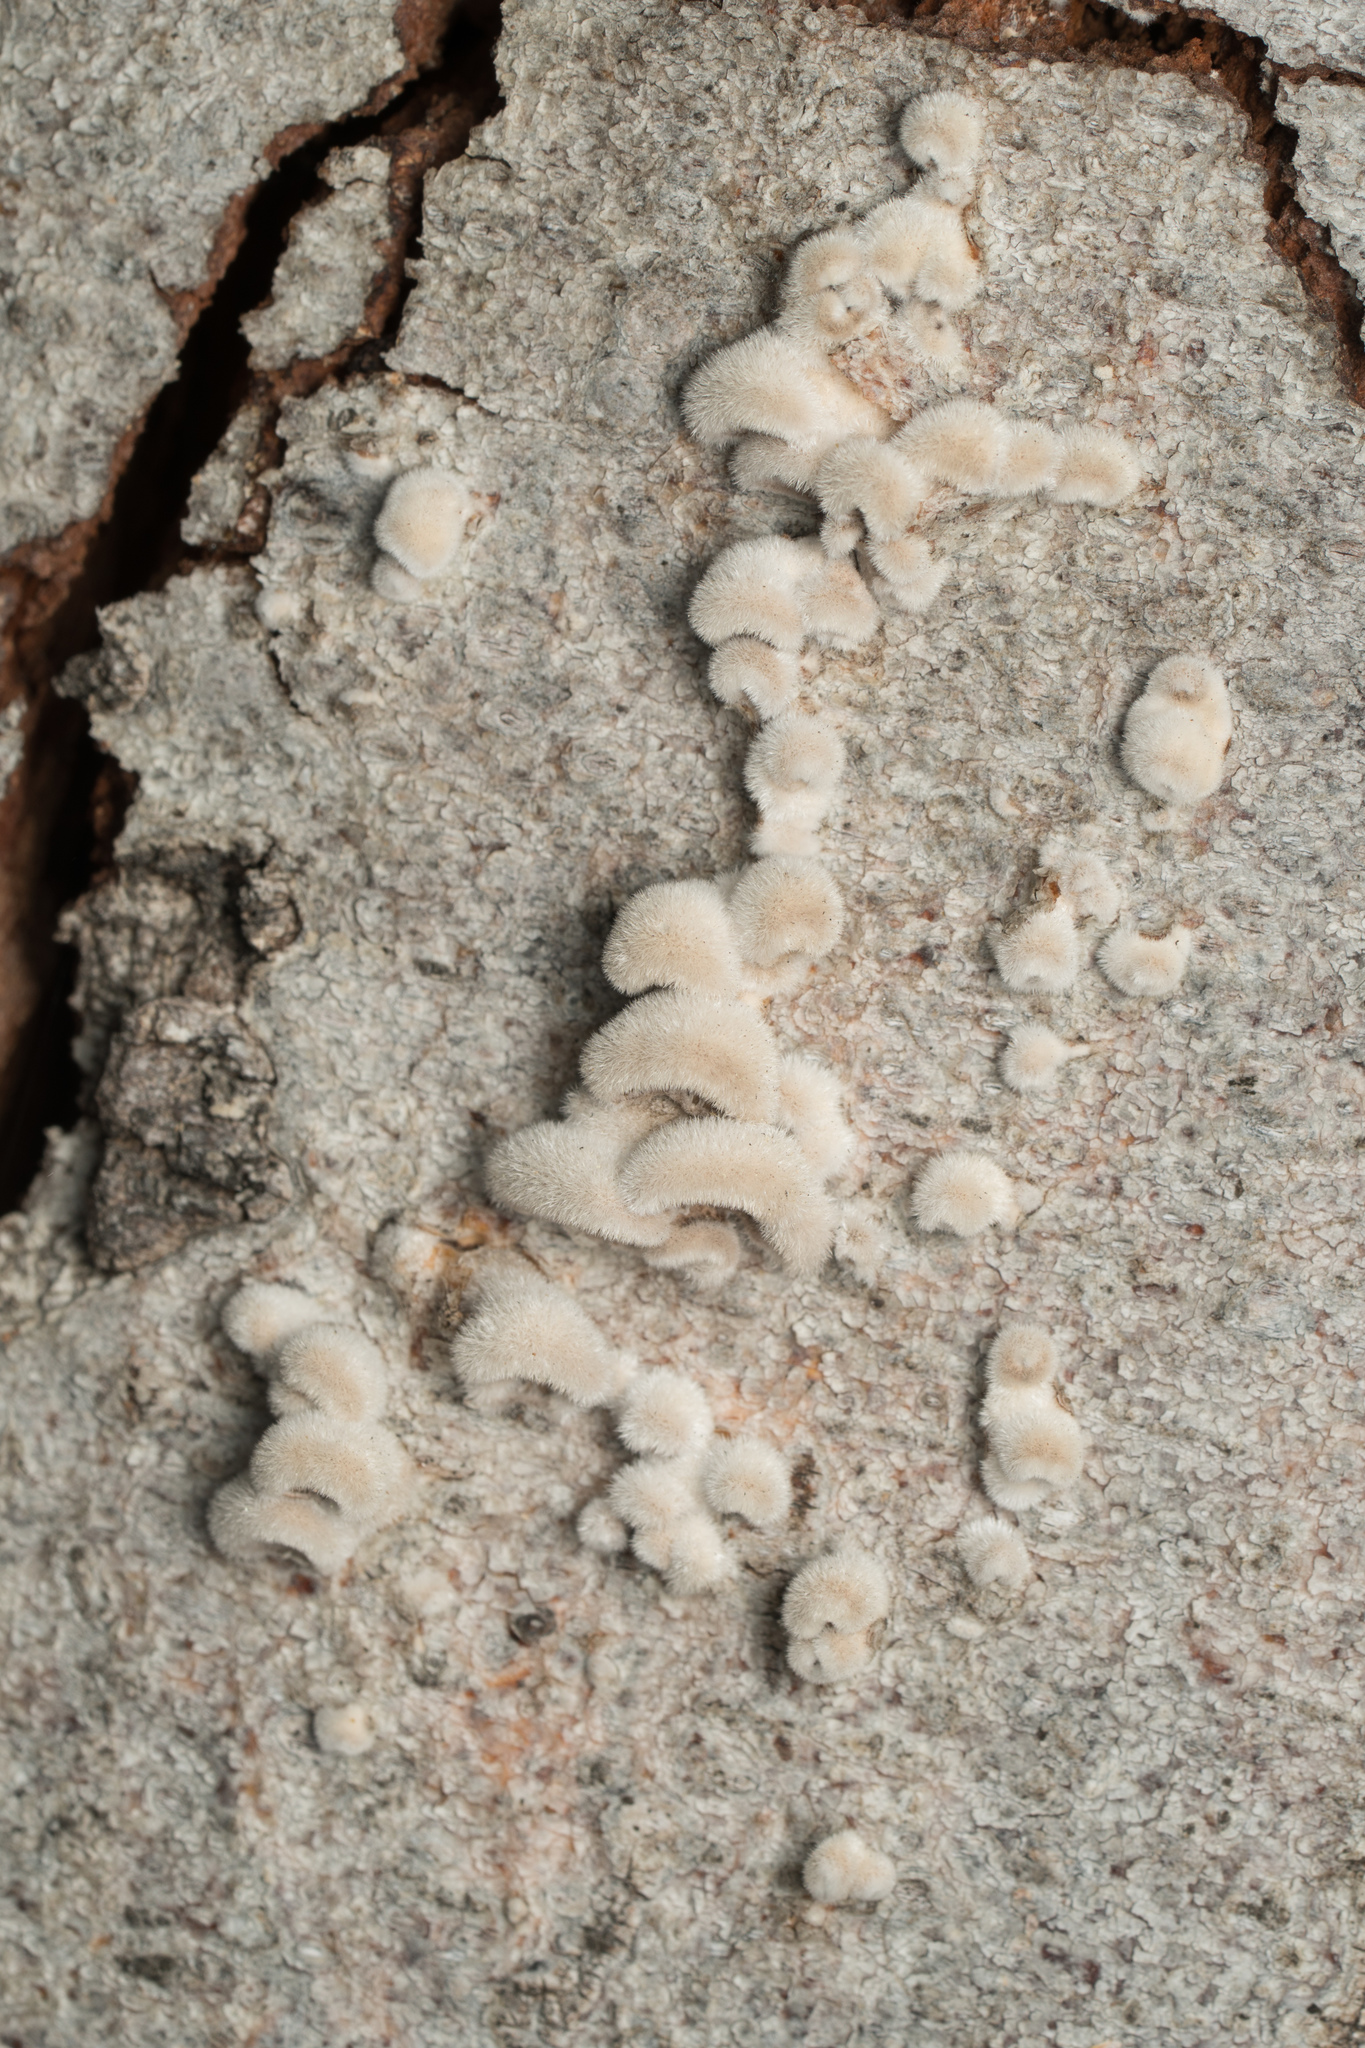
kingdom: Fungi
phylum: Basidiomycota
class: Agaricomycetes
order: Agaricales
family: Schizophyllaceae
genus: Schizophyllum
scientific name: Schizophyllum commune
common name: Common porecrust
